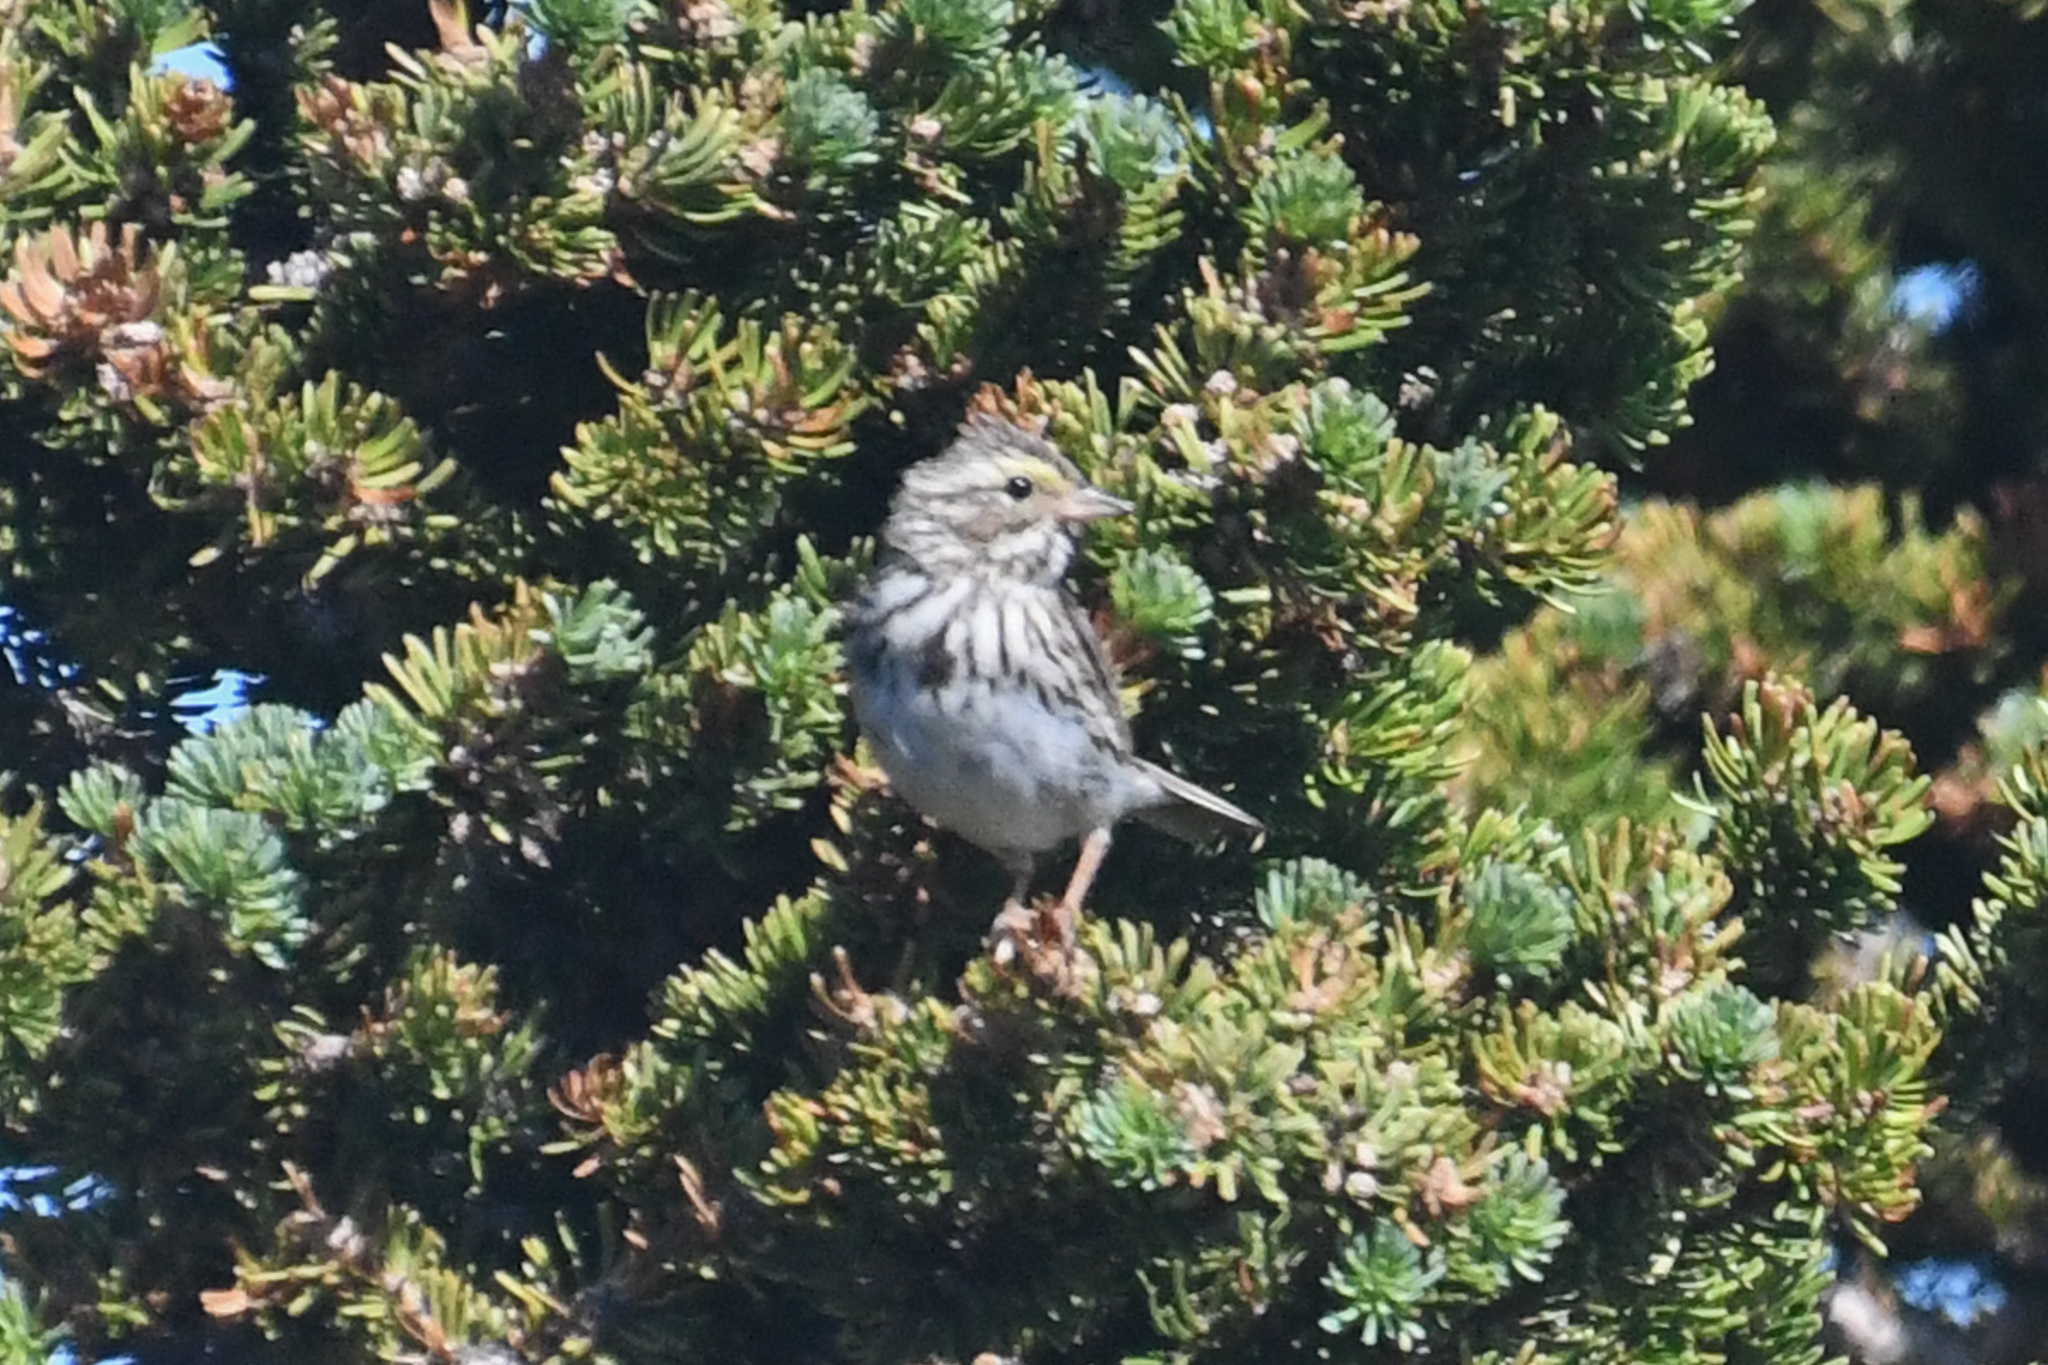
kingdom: Animalia
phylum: Chordata
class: Aves
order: Passeriformes
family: Passerellidae
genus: Passerculus
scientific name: Passerculus sandwichensis
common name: Savannah sparrow
